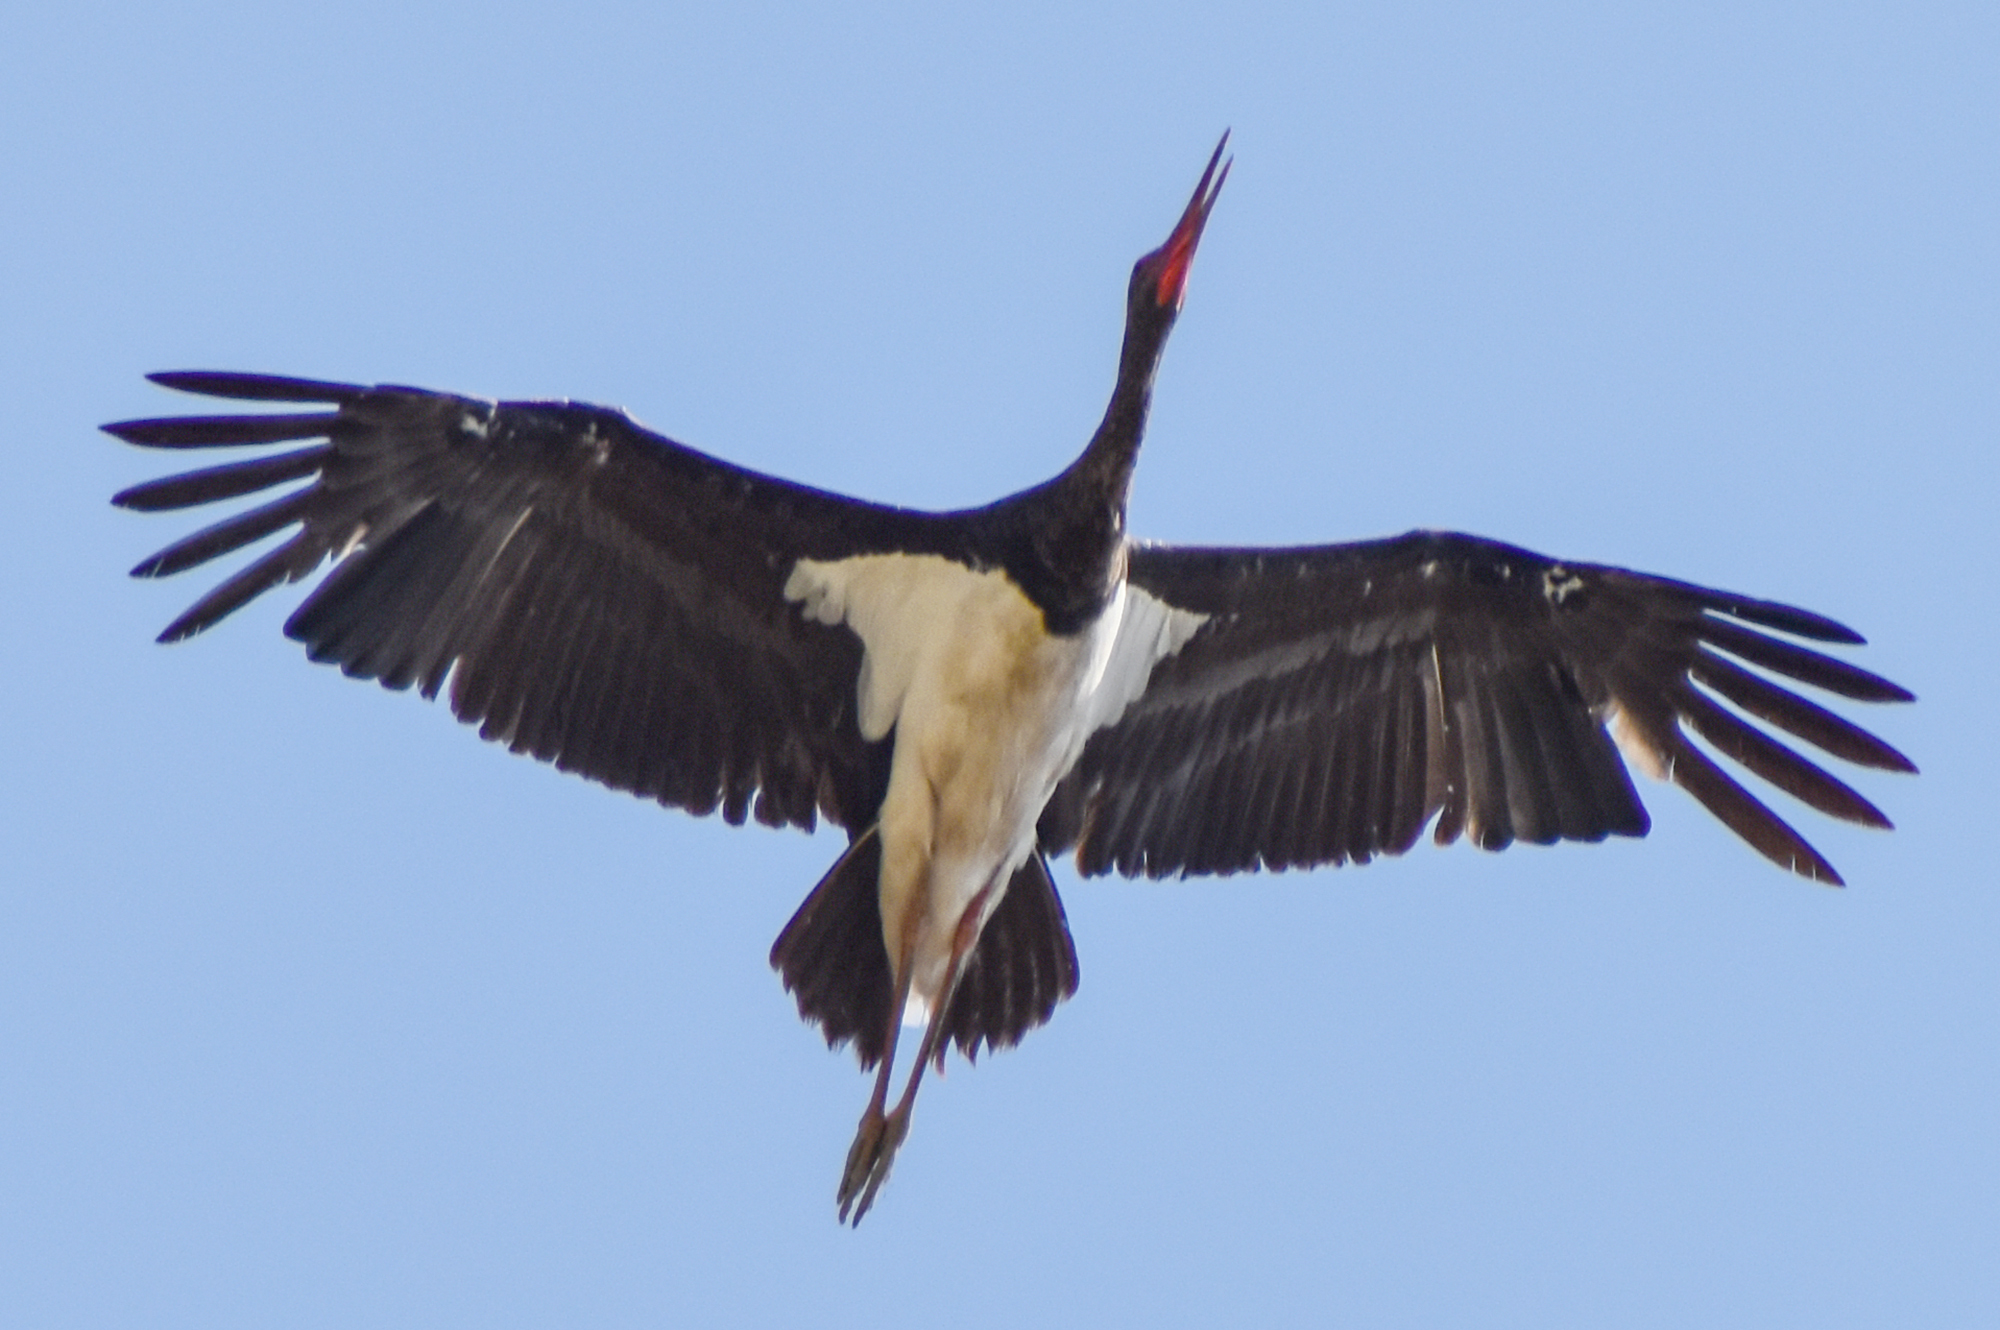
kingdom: Animalia
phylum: Chordata
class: Aves
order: Ciconiiformes
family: Ciconiidae
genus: Ciconia
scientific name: Ciconia nigra
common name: Black stork
